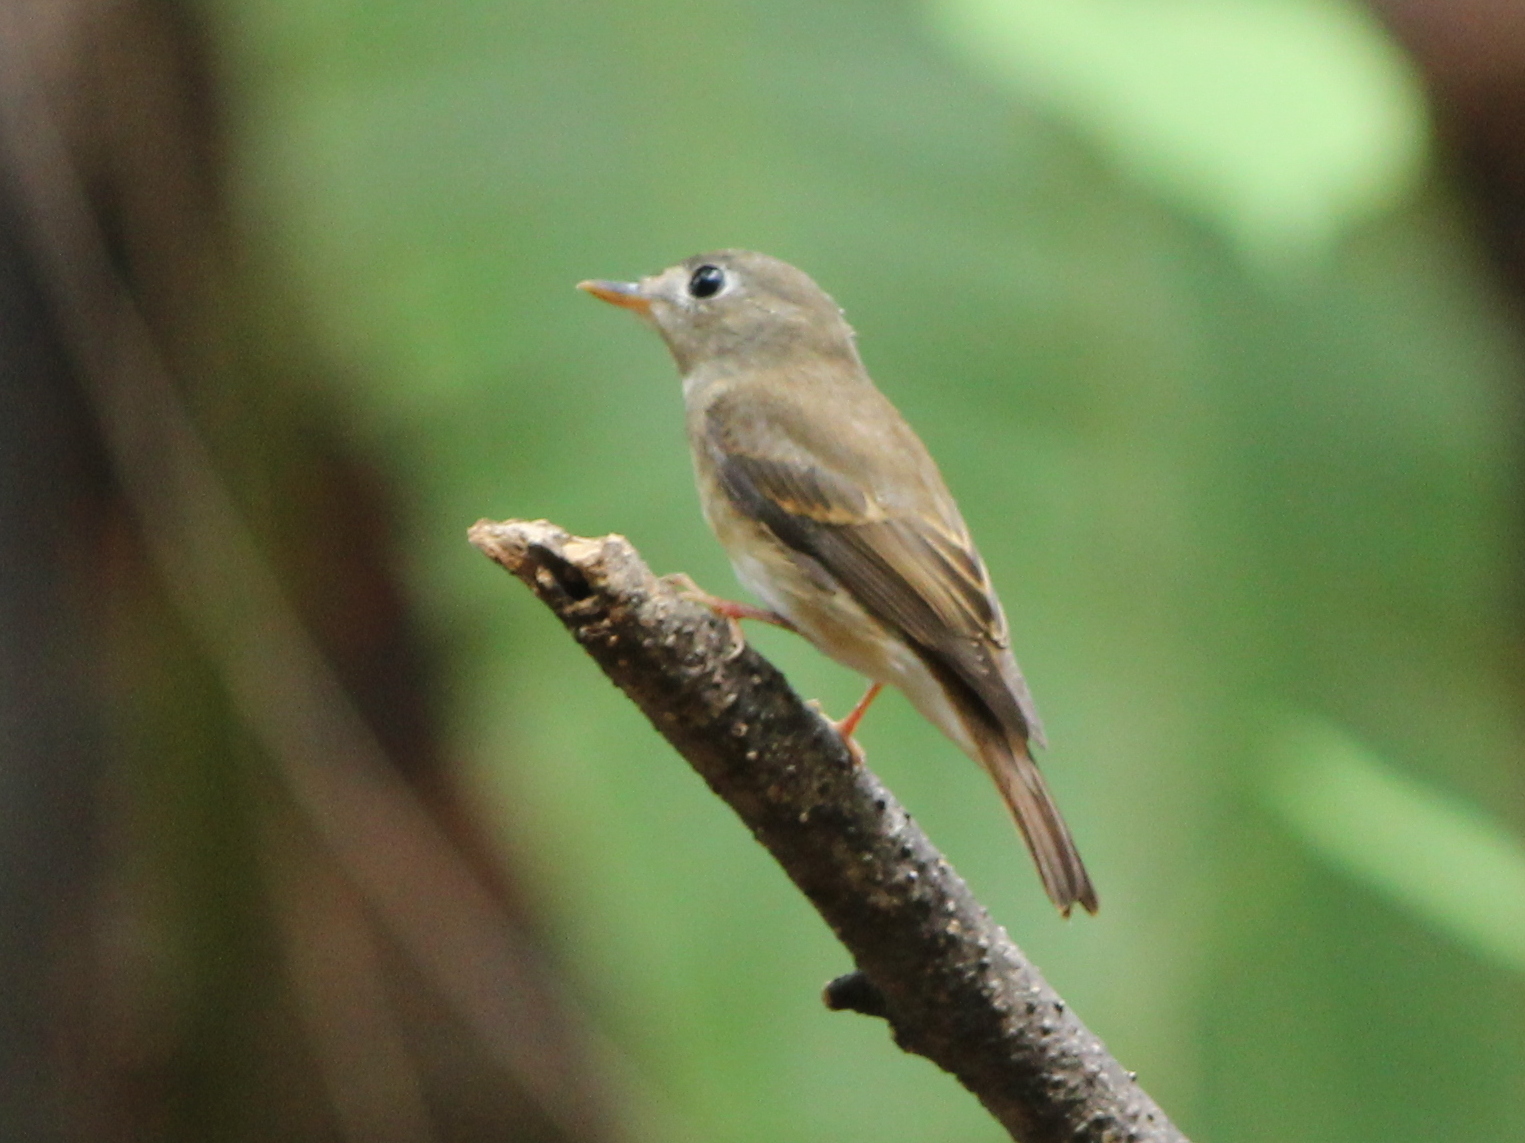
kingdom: Animalia
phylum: Chordata
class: Aves
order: Passeriformes
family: Muscicapidae
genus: Muscicapa
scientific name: Muscicapa muttui
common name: Brown-breasted flycatcher
